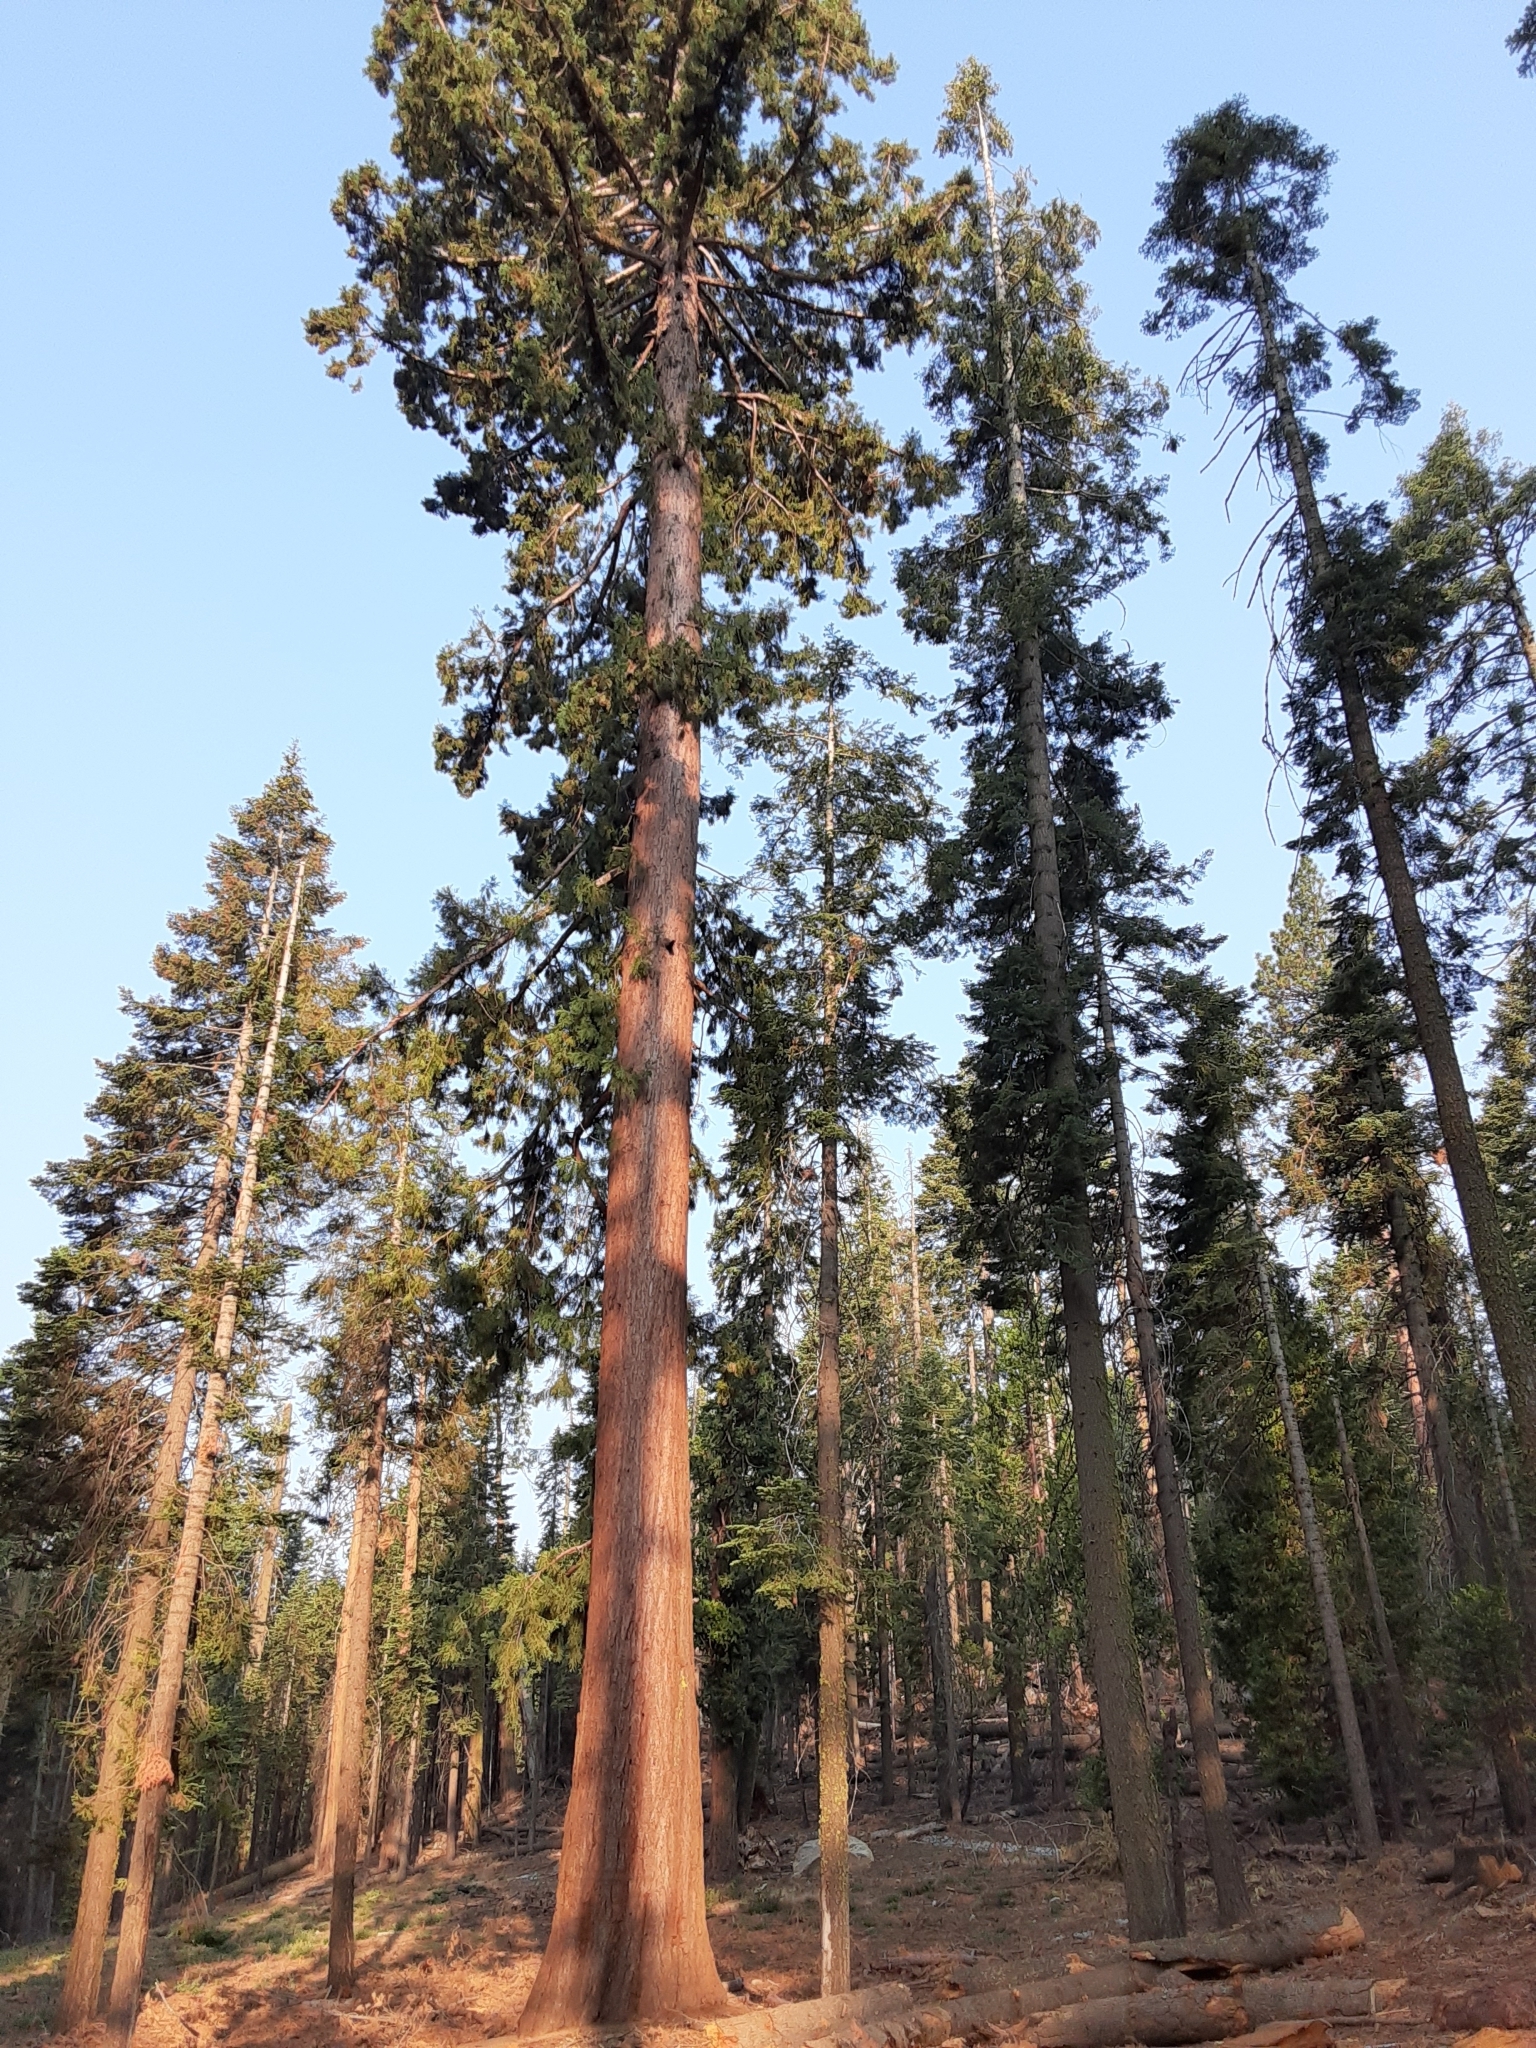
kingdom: Plantae
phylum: Tracheophyta
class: Pinopsida
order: Pinales
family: Cupressaceae
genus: Sequoiadendron
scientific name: Sequoiadendron giganteum
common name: Wellingtonia
